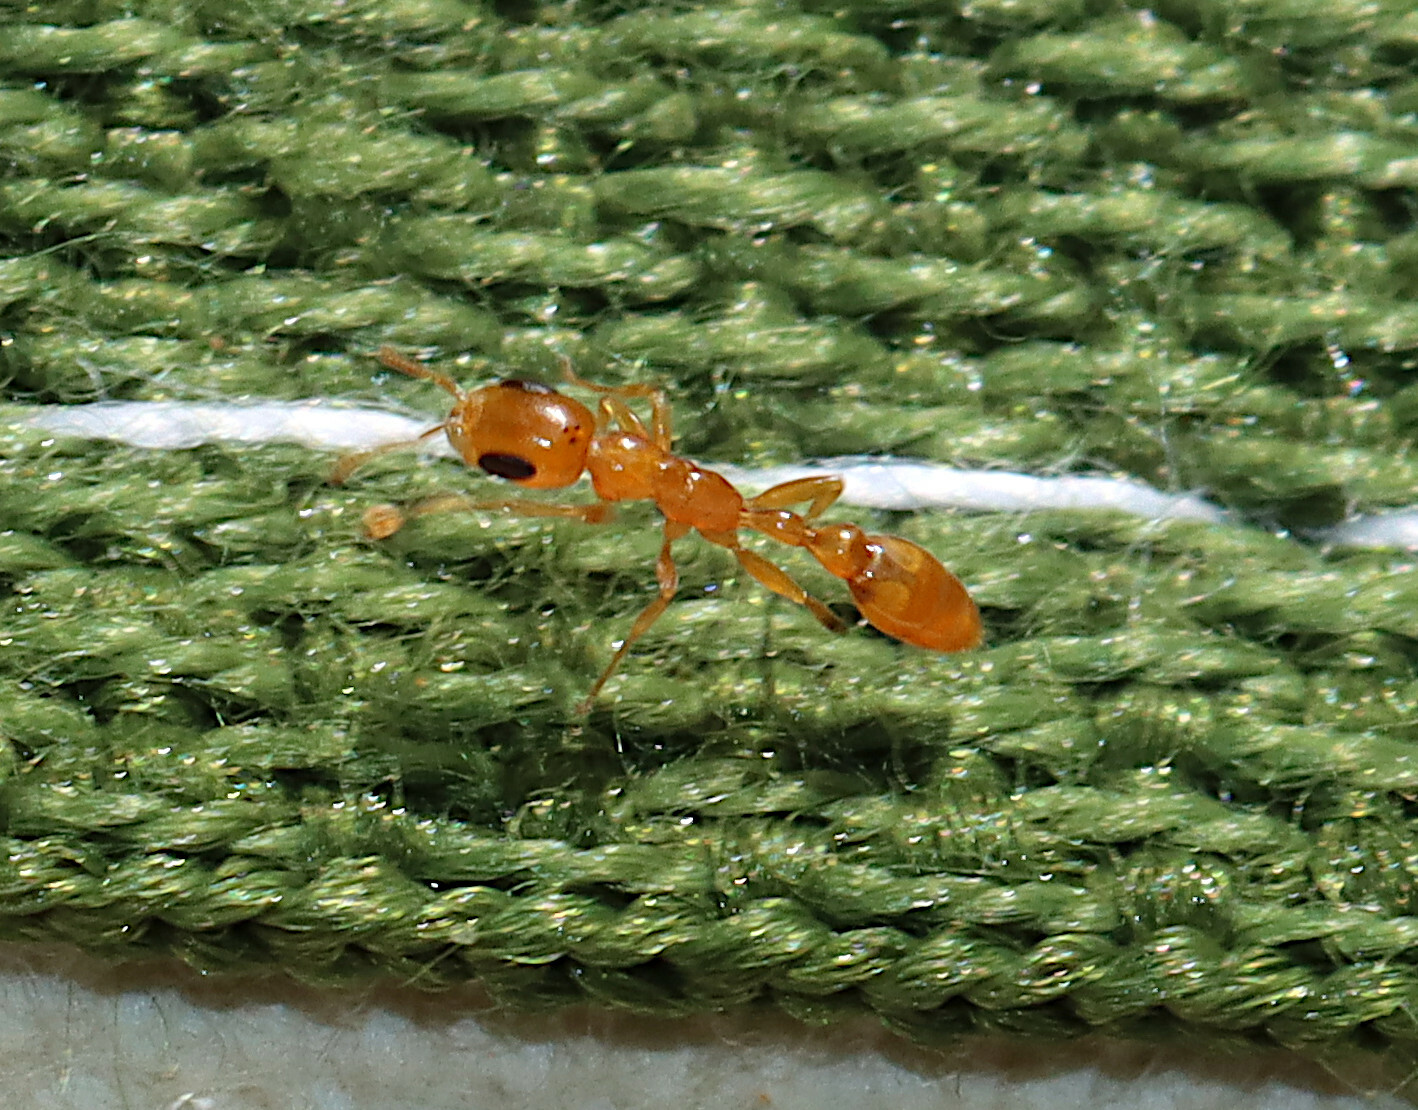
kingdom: Animalia
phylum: Arthropoda
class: Insecta
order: Hymenoptera
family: Formicidae
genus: Pseudomyrmex
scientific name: Pseudomyrmex pallidus
